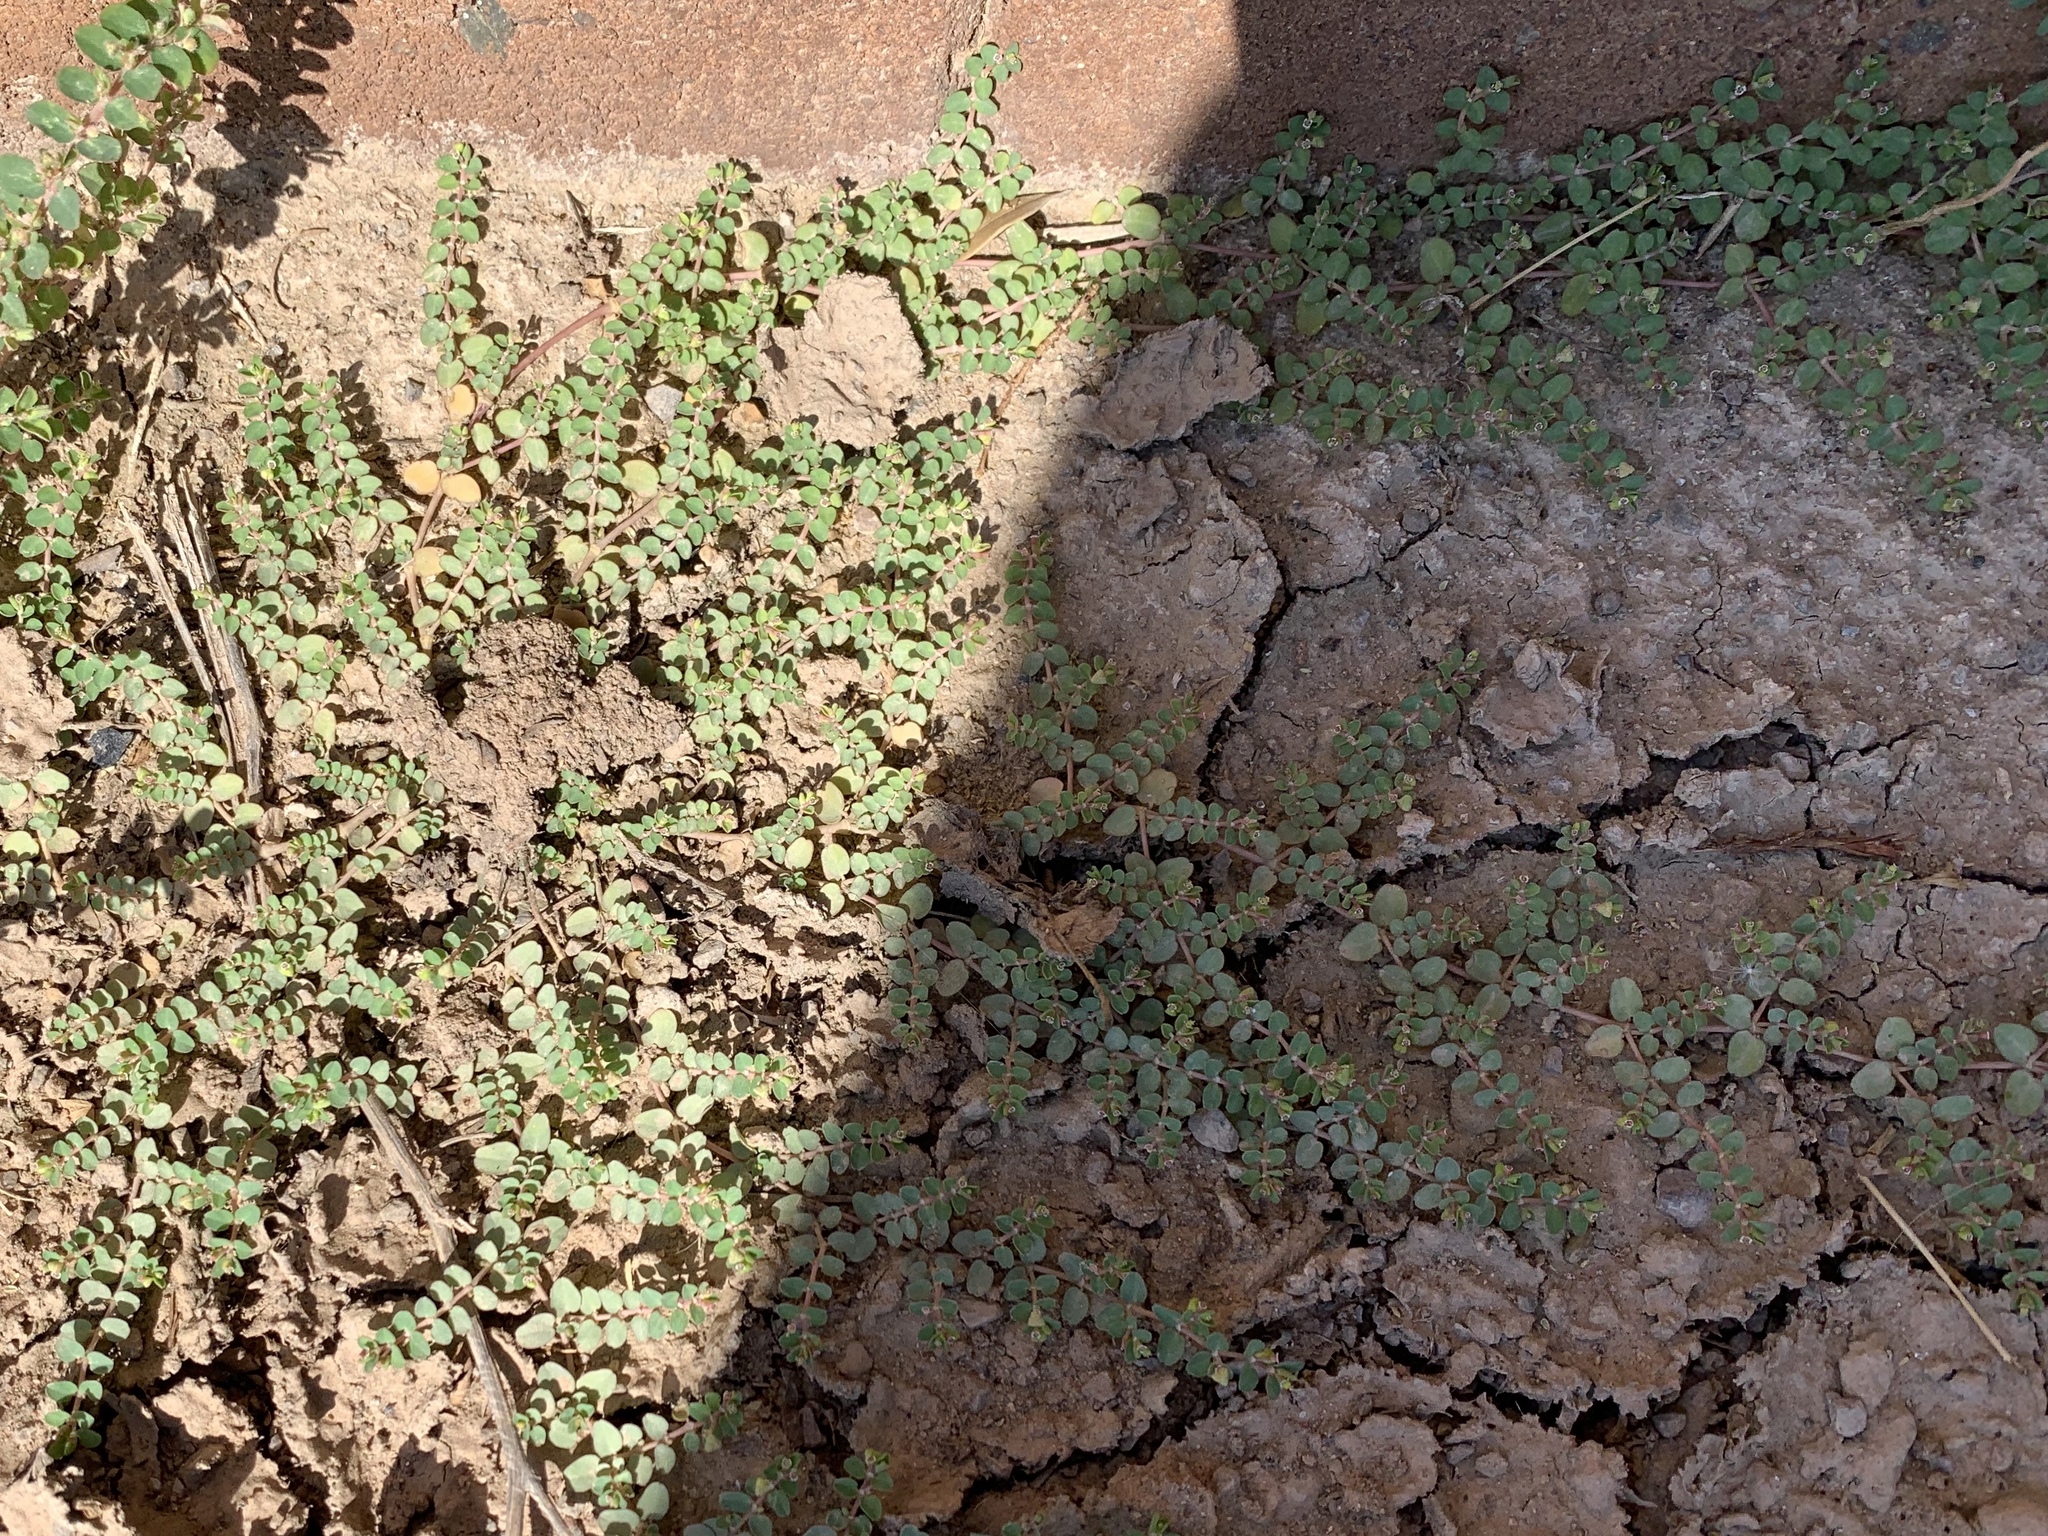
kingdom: Plantae
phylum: Tracheophyta
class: Magnoliopsida
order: Malpighiales
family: Euphorbiaceae
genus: Euphorbia
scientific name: Euphorbia serpens
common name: Matted sandmat
